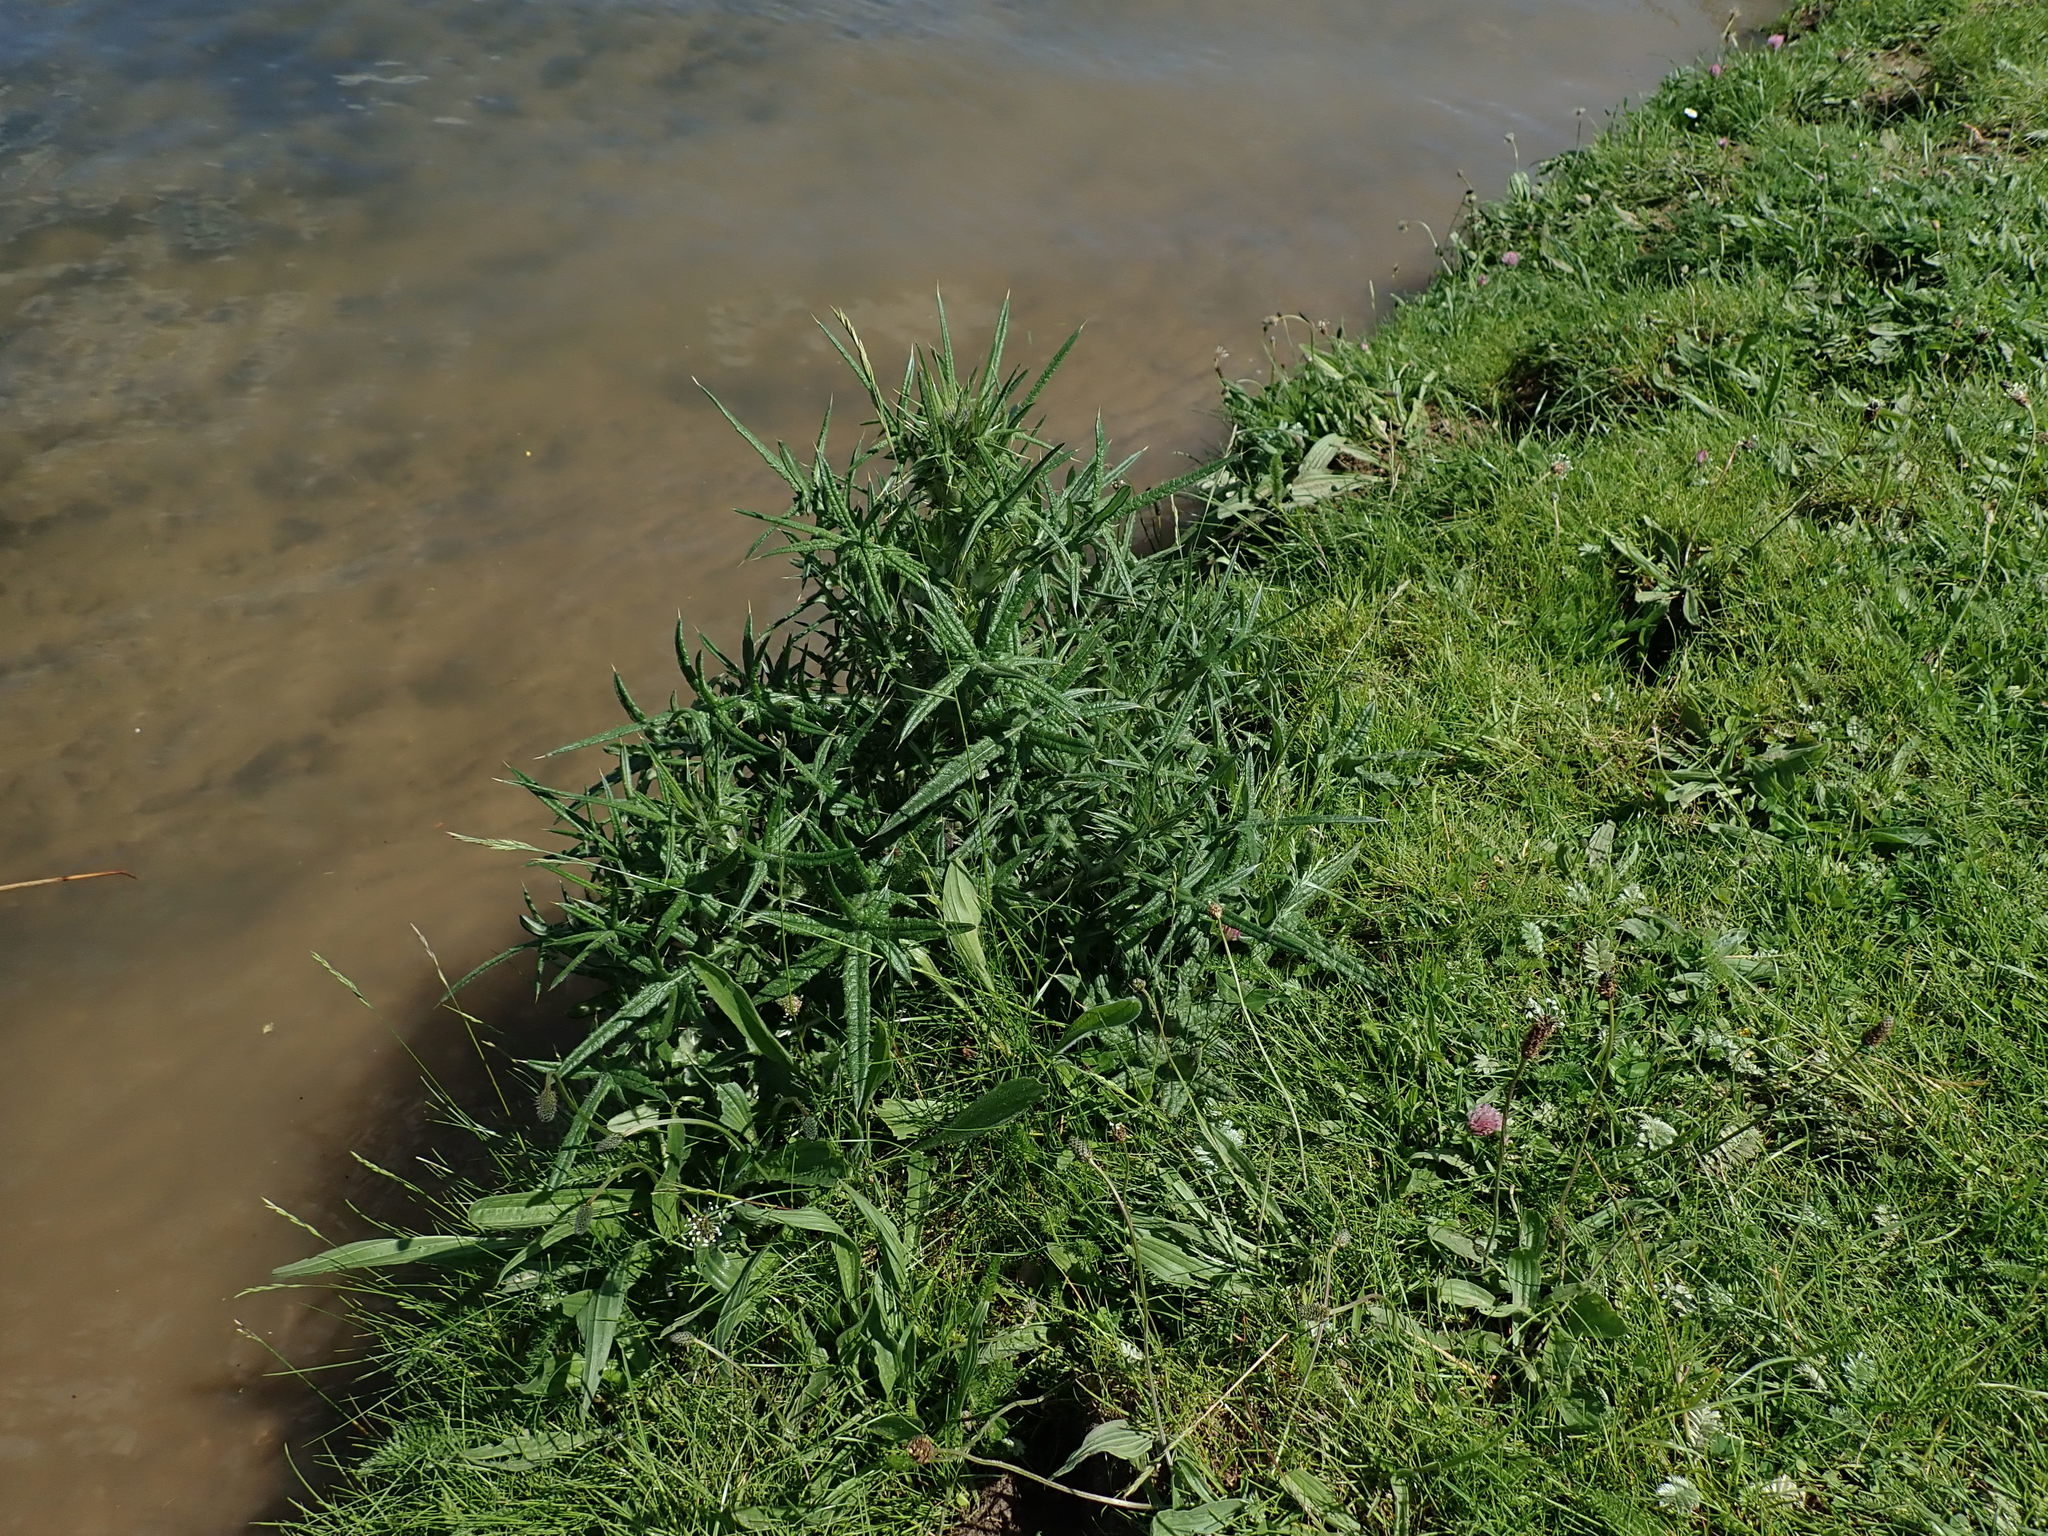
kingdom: Plantae
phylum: Tracheophyta
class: Magnoliopsida
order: Asterales
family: Asteraceae
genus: Cirsium
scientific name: Cirsium vulgare
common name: Bull thistle
